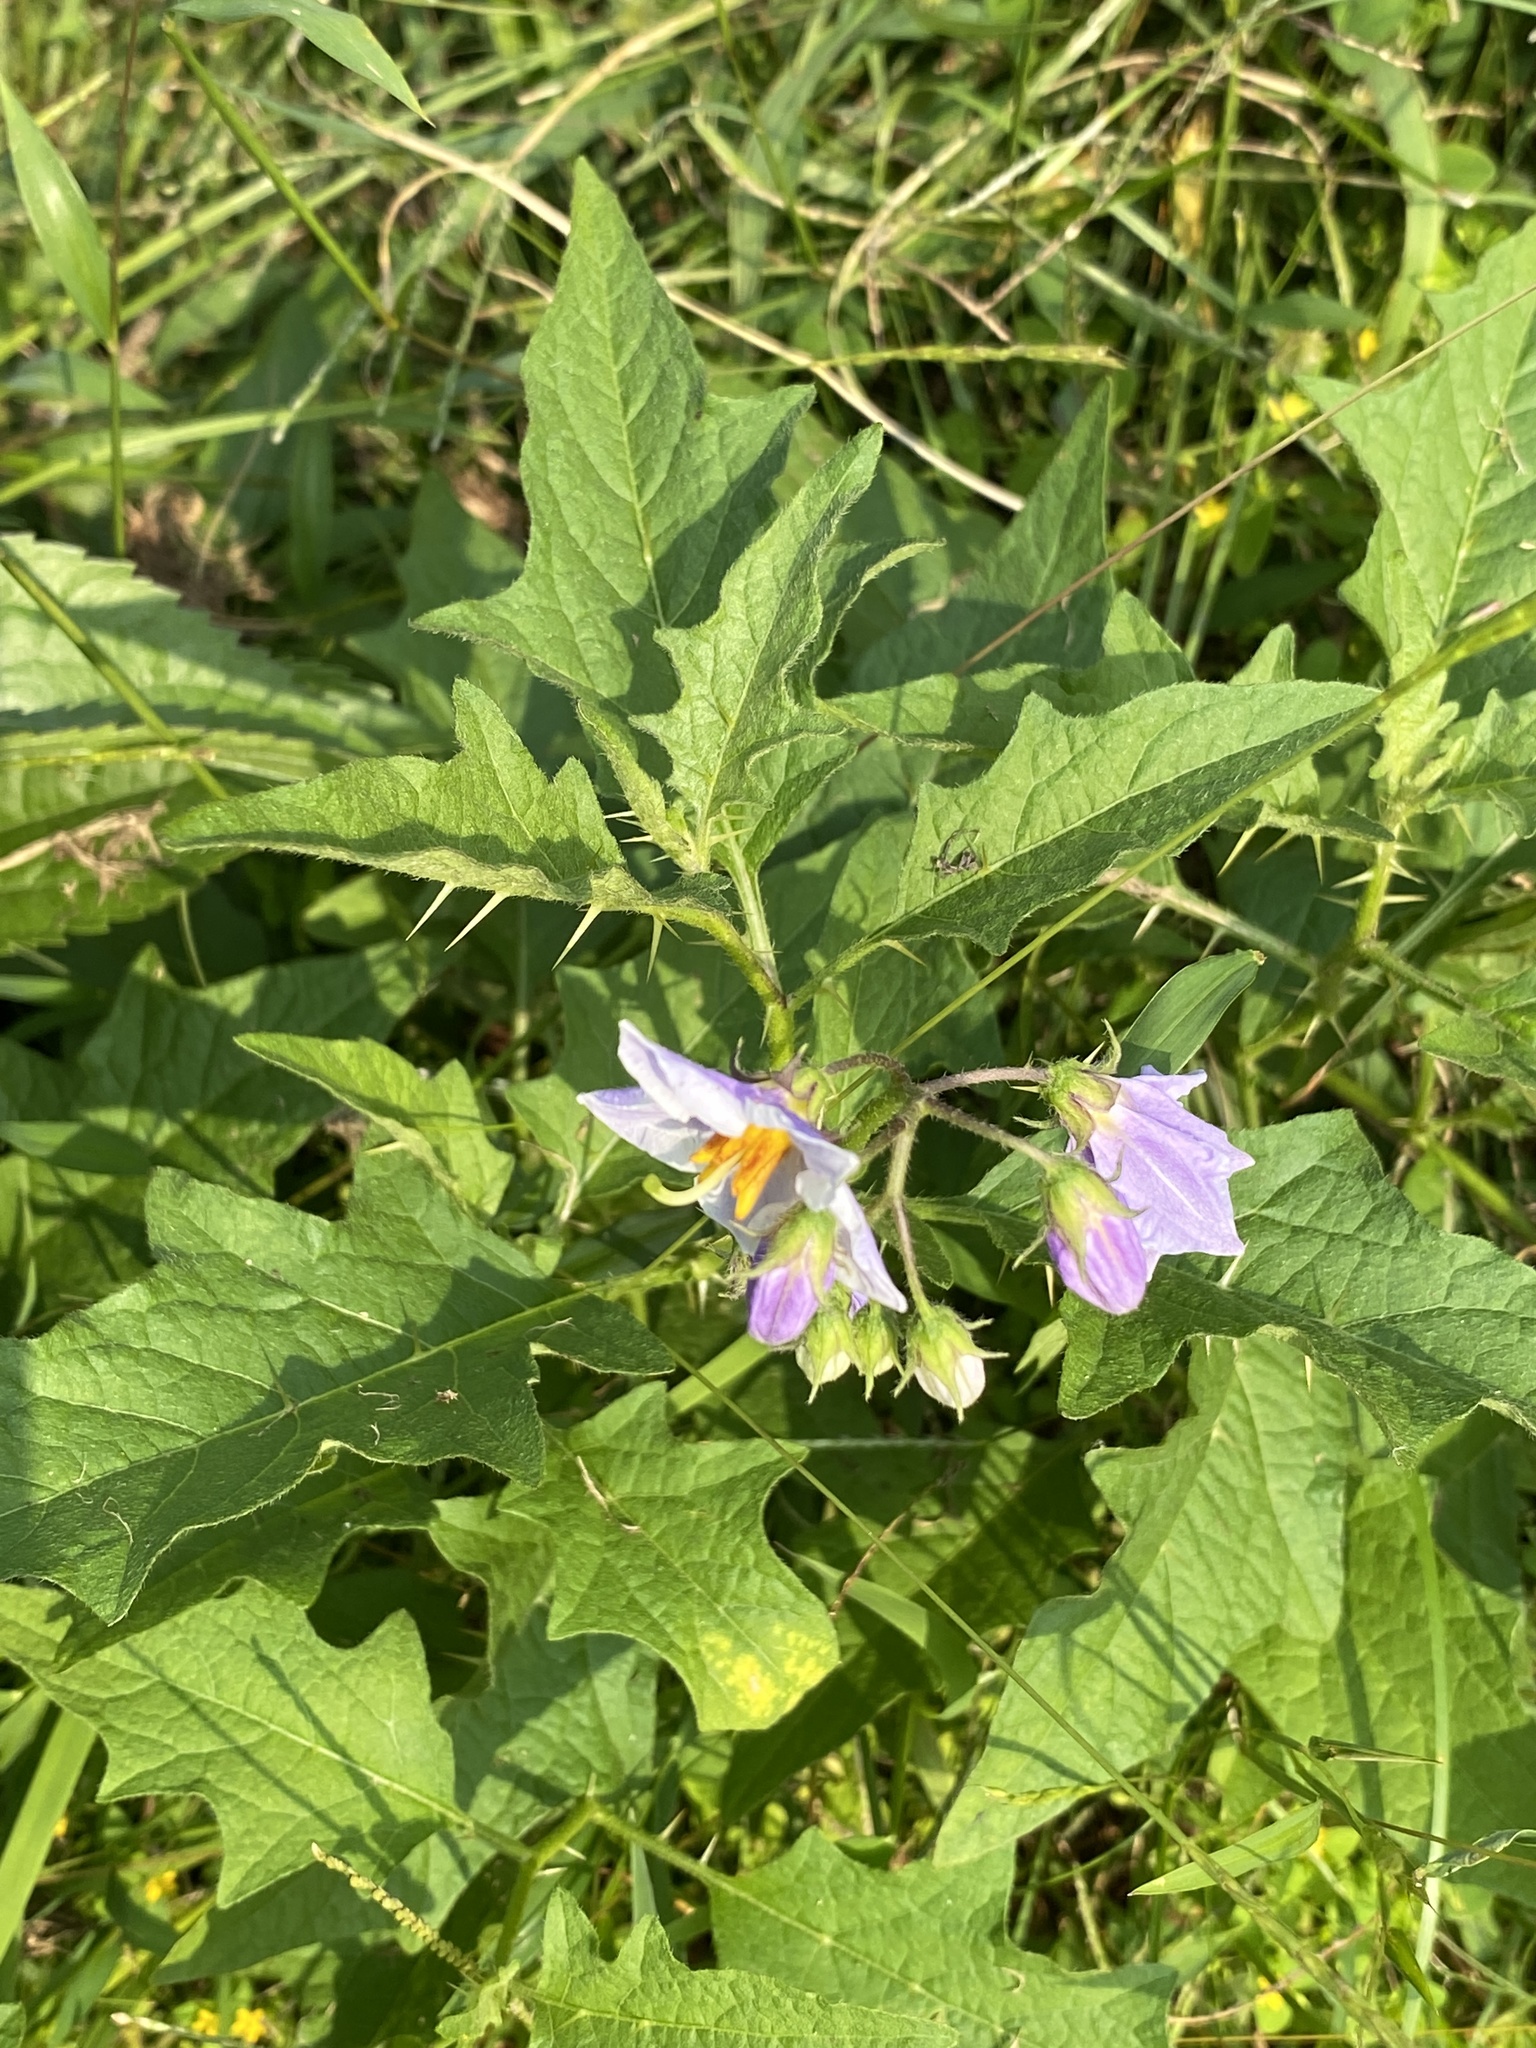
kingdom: Plantae
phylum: Tracheophyta
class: Magnoliopsida
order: Solanales
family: Solanaceae
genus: Solanum
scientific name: Solanum carolinense
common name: Horse-nettle
